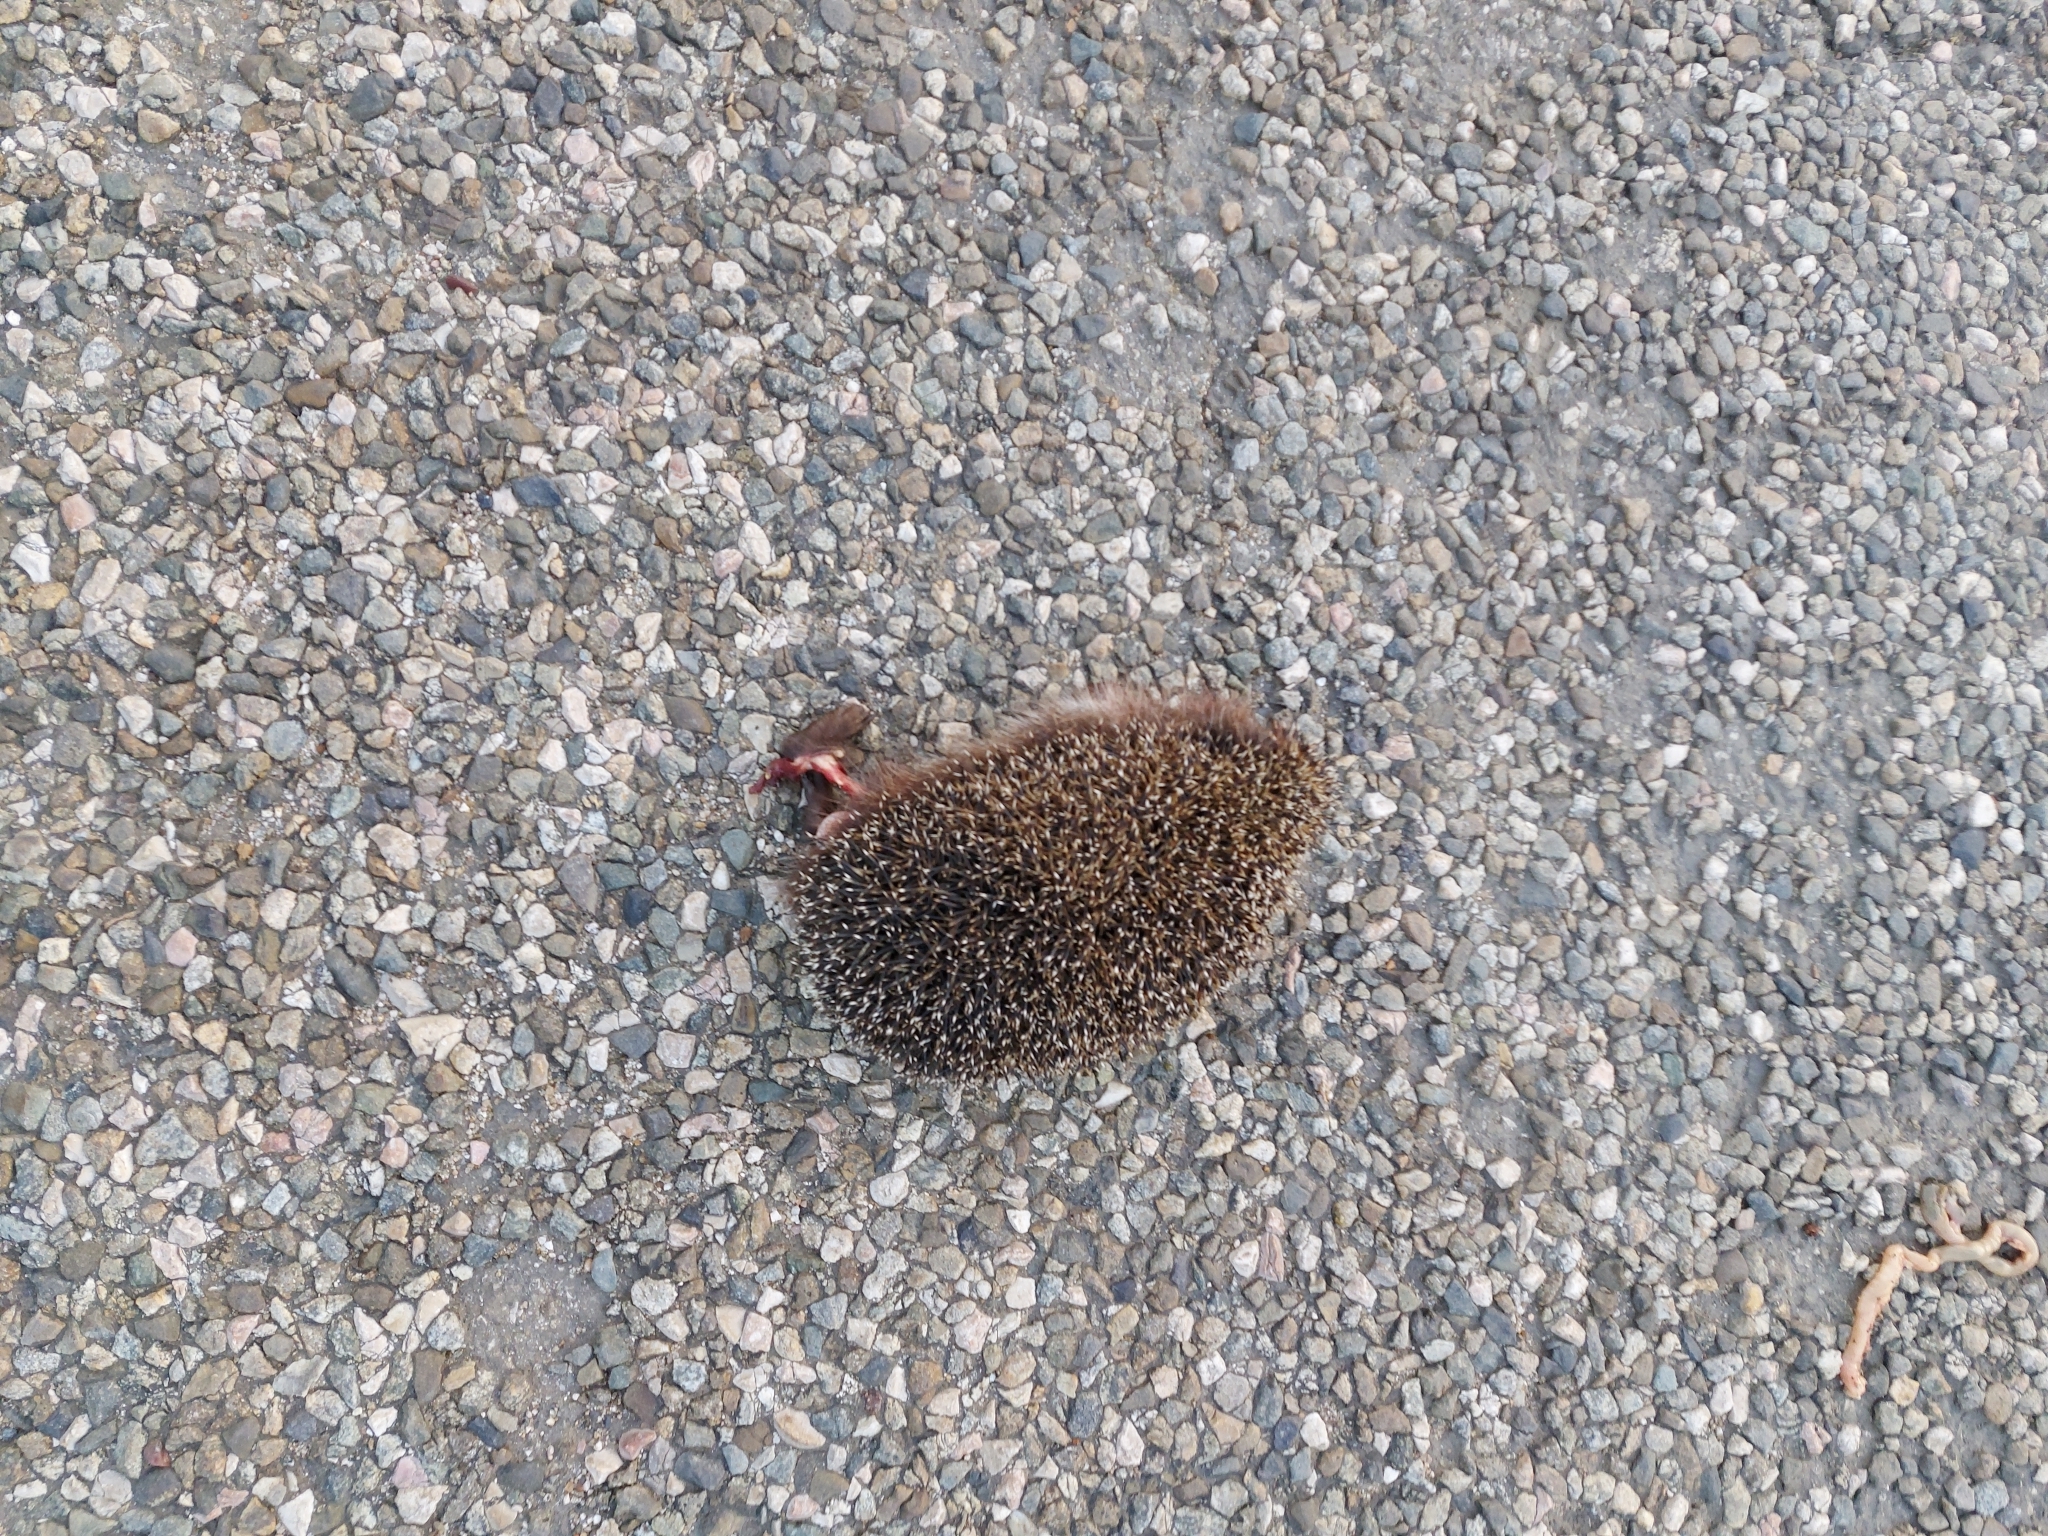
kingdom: Animalia
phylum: Chordata
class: Mammalia
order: Erinaceomorpha
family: Erinaceidae
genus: Erinaceus
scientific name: Erinaceus roumanicus
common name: Northern white-breasted hedgehog
